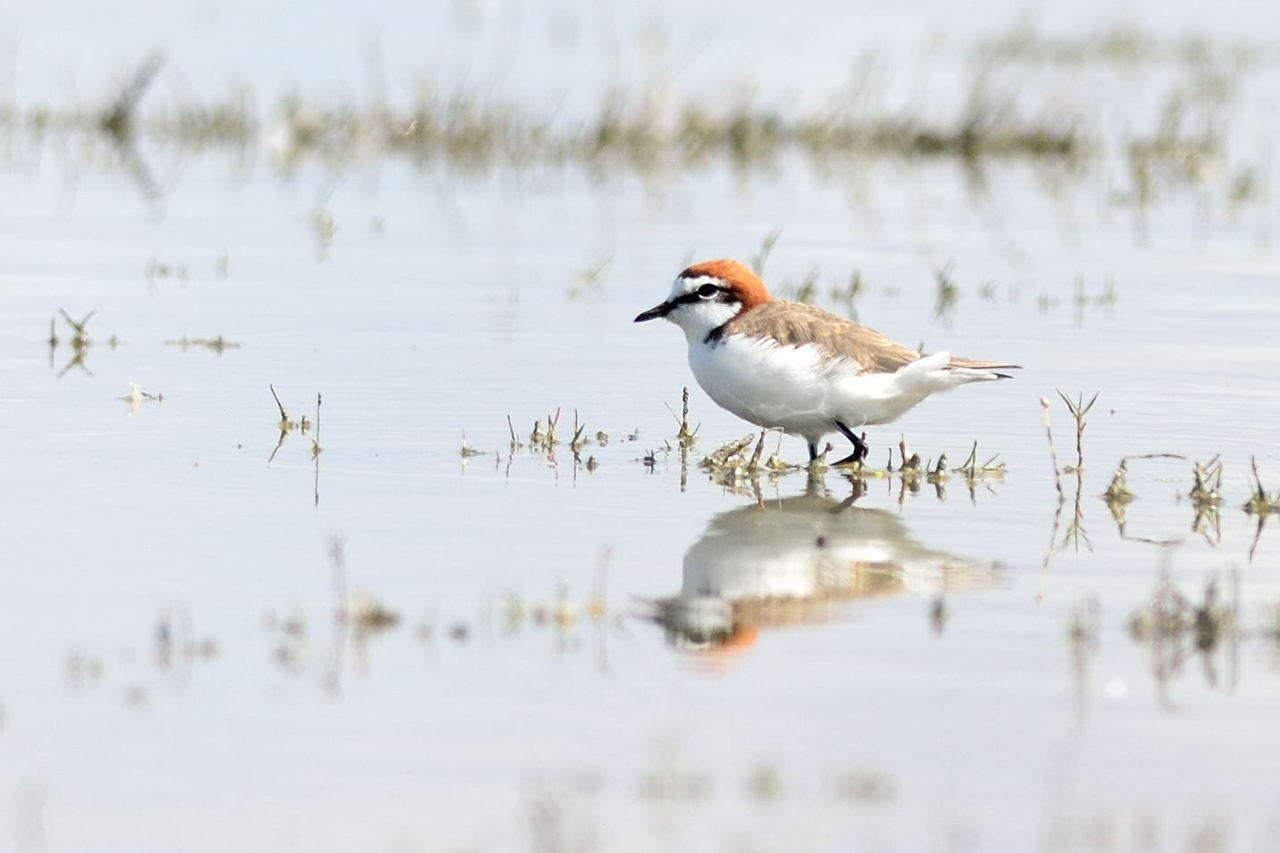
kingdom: Animalia
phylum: Chordata
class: Aves
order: Charadriiformes
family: Charadriidae
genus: Anarhynchus
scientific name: Anarhynchus
